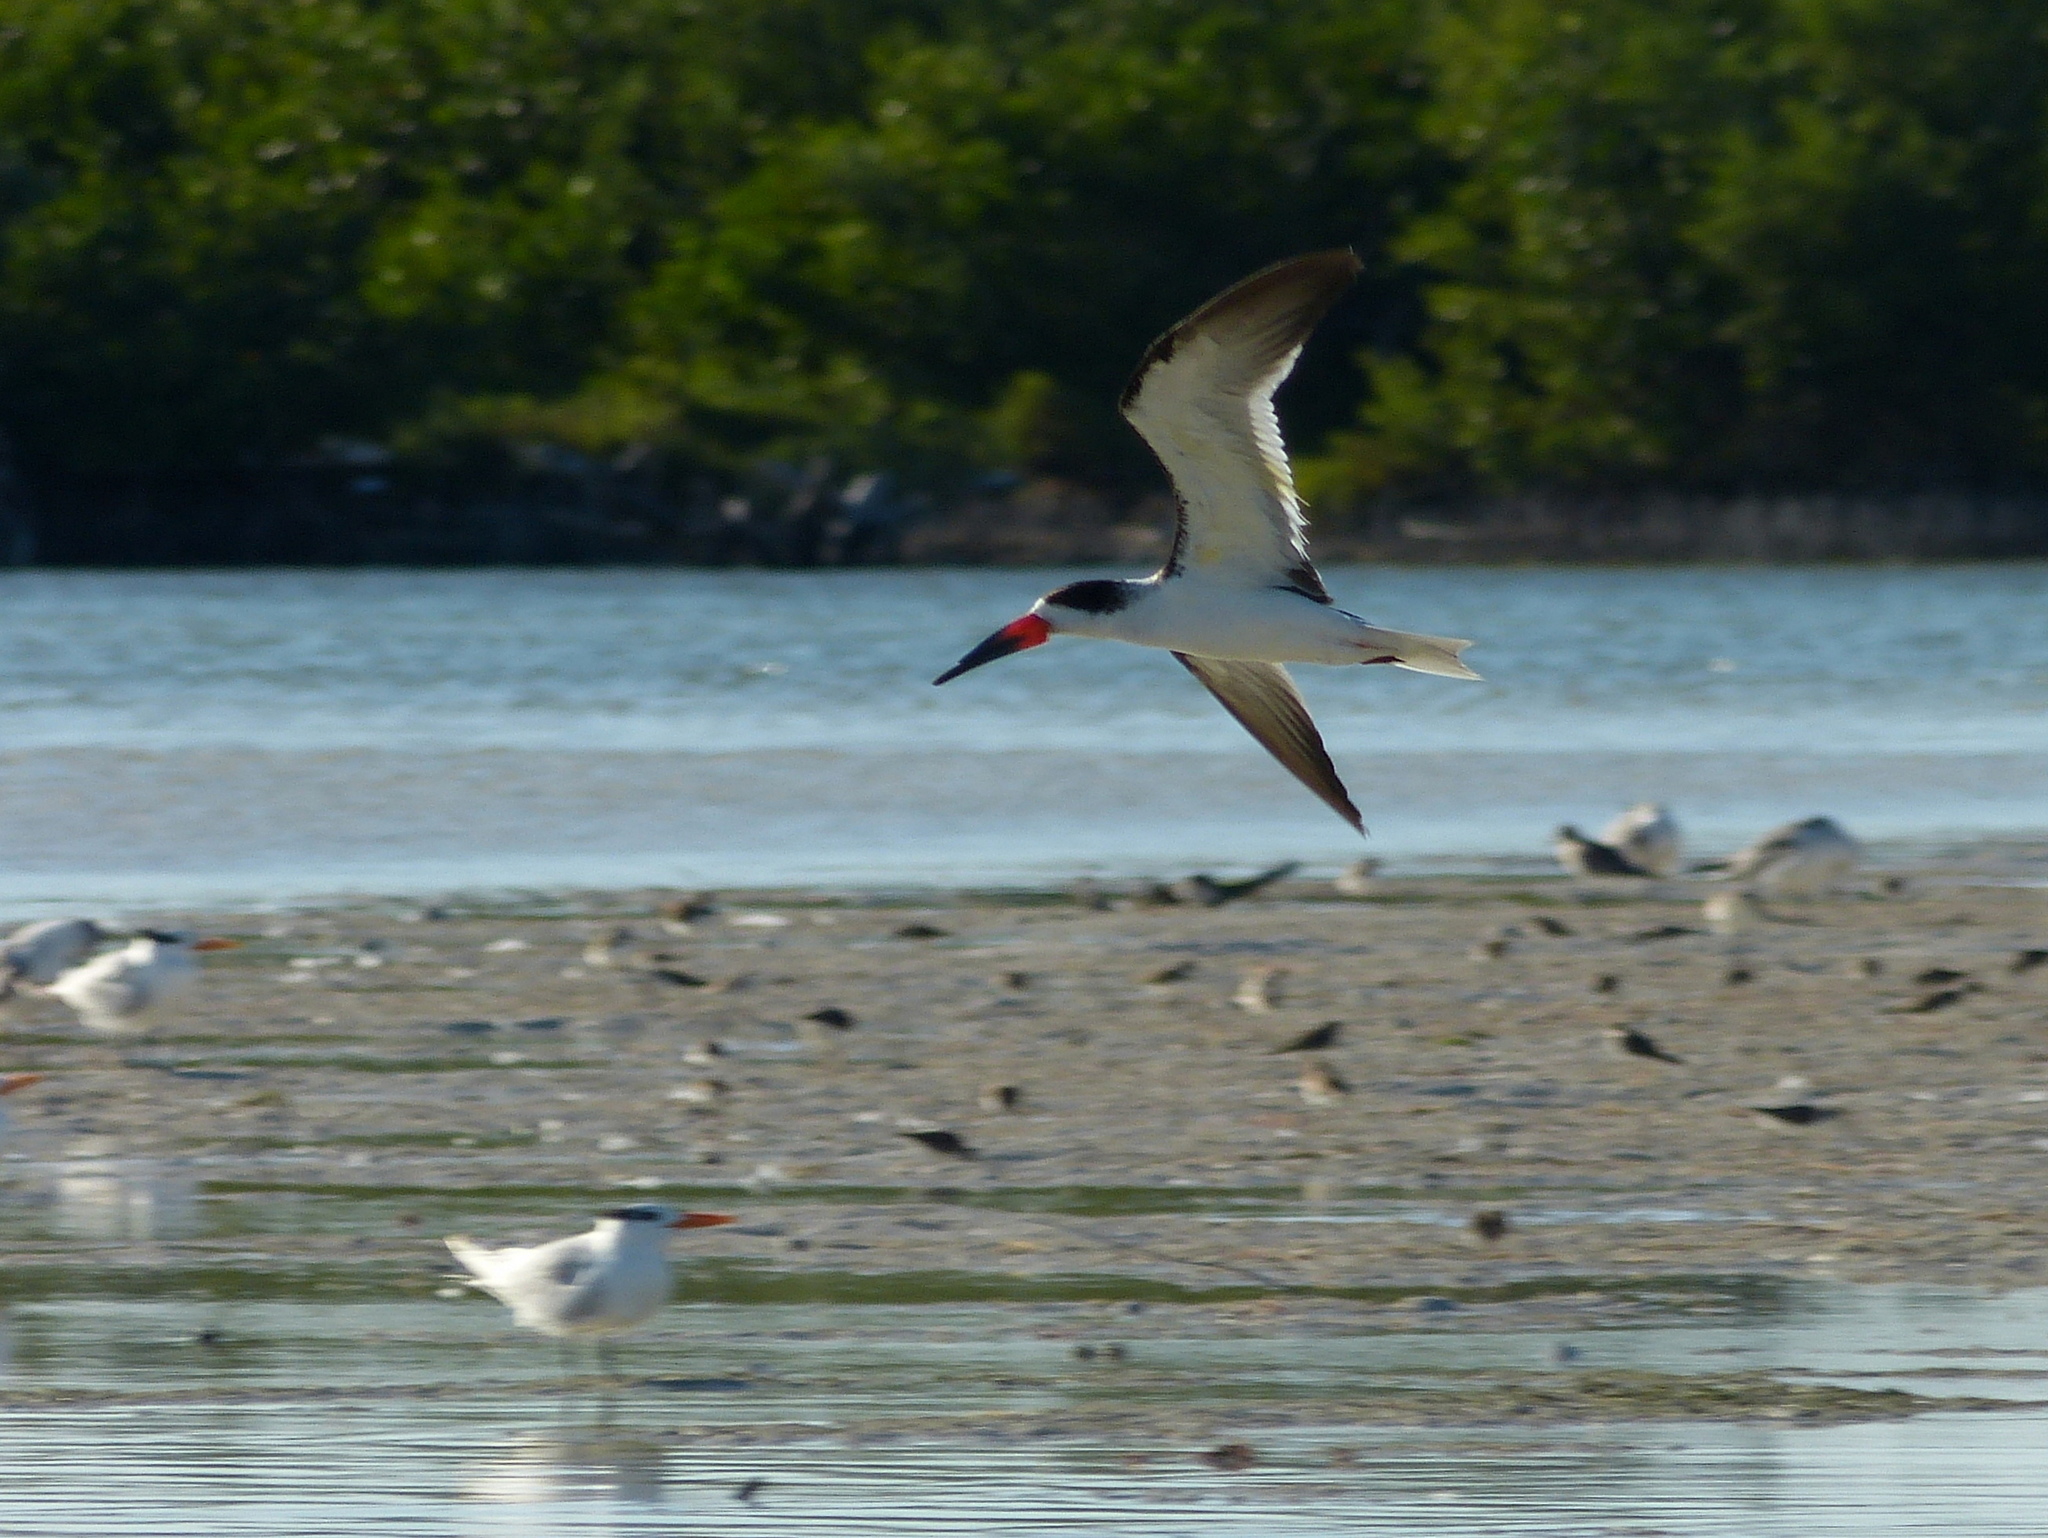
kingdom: Animalia
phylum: Chordata
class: Aves
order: Charadriiformes
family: Laridae
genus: Rynchops
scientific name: Rynchops niger
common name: Black skimmer
